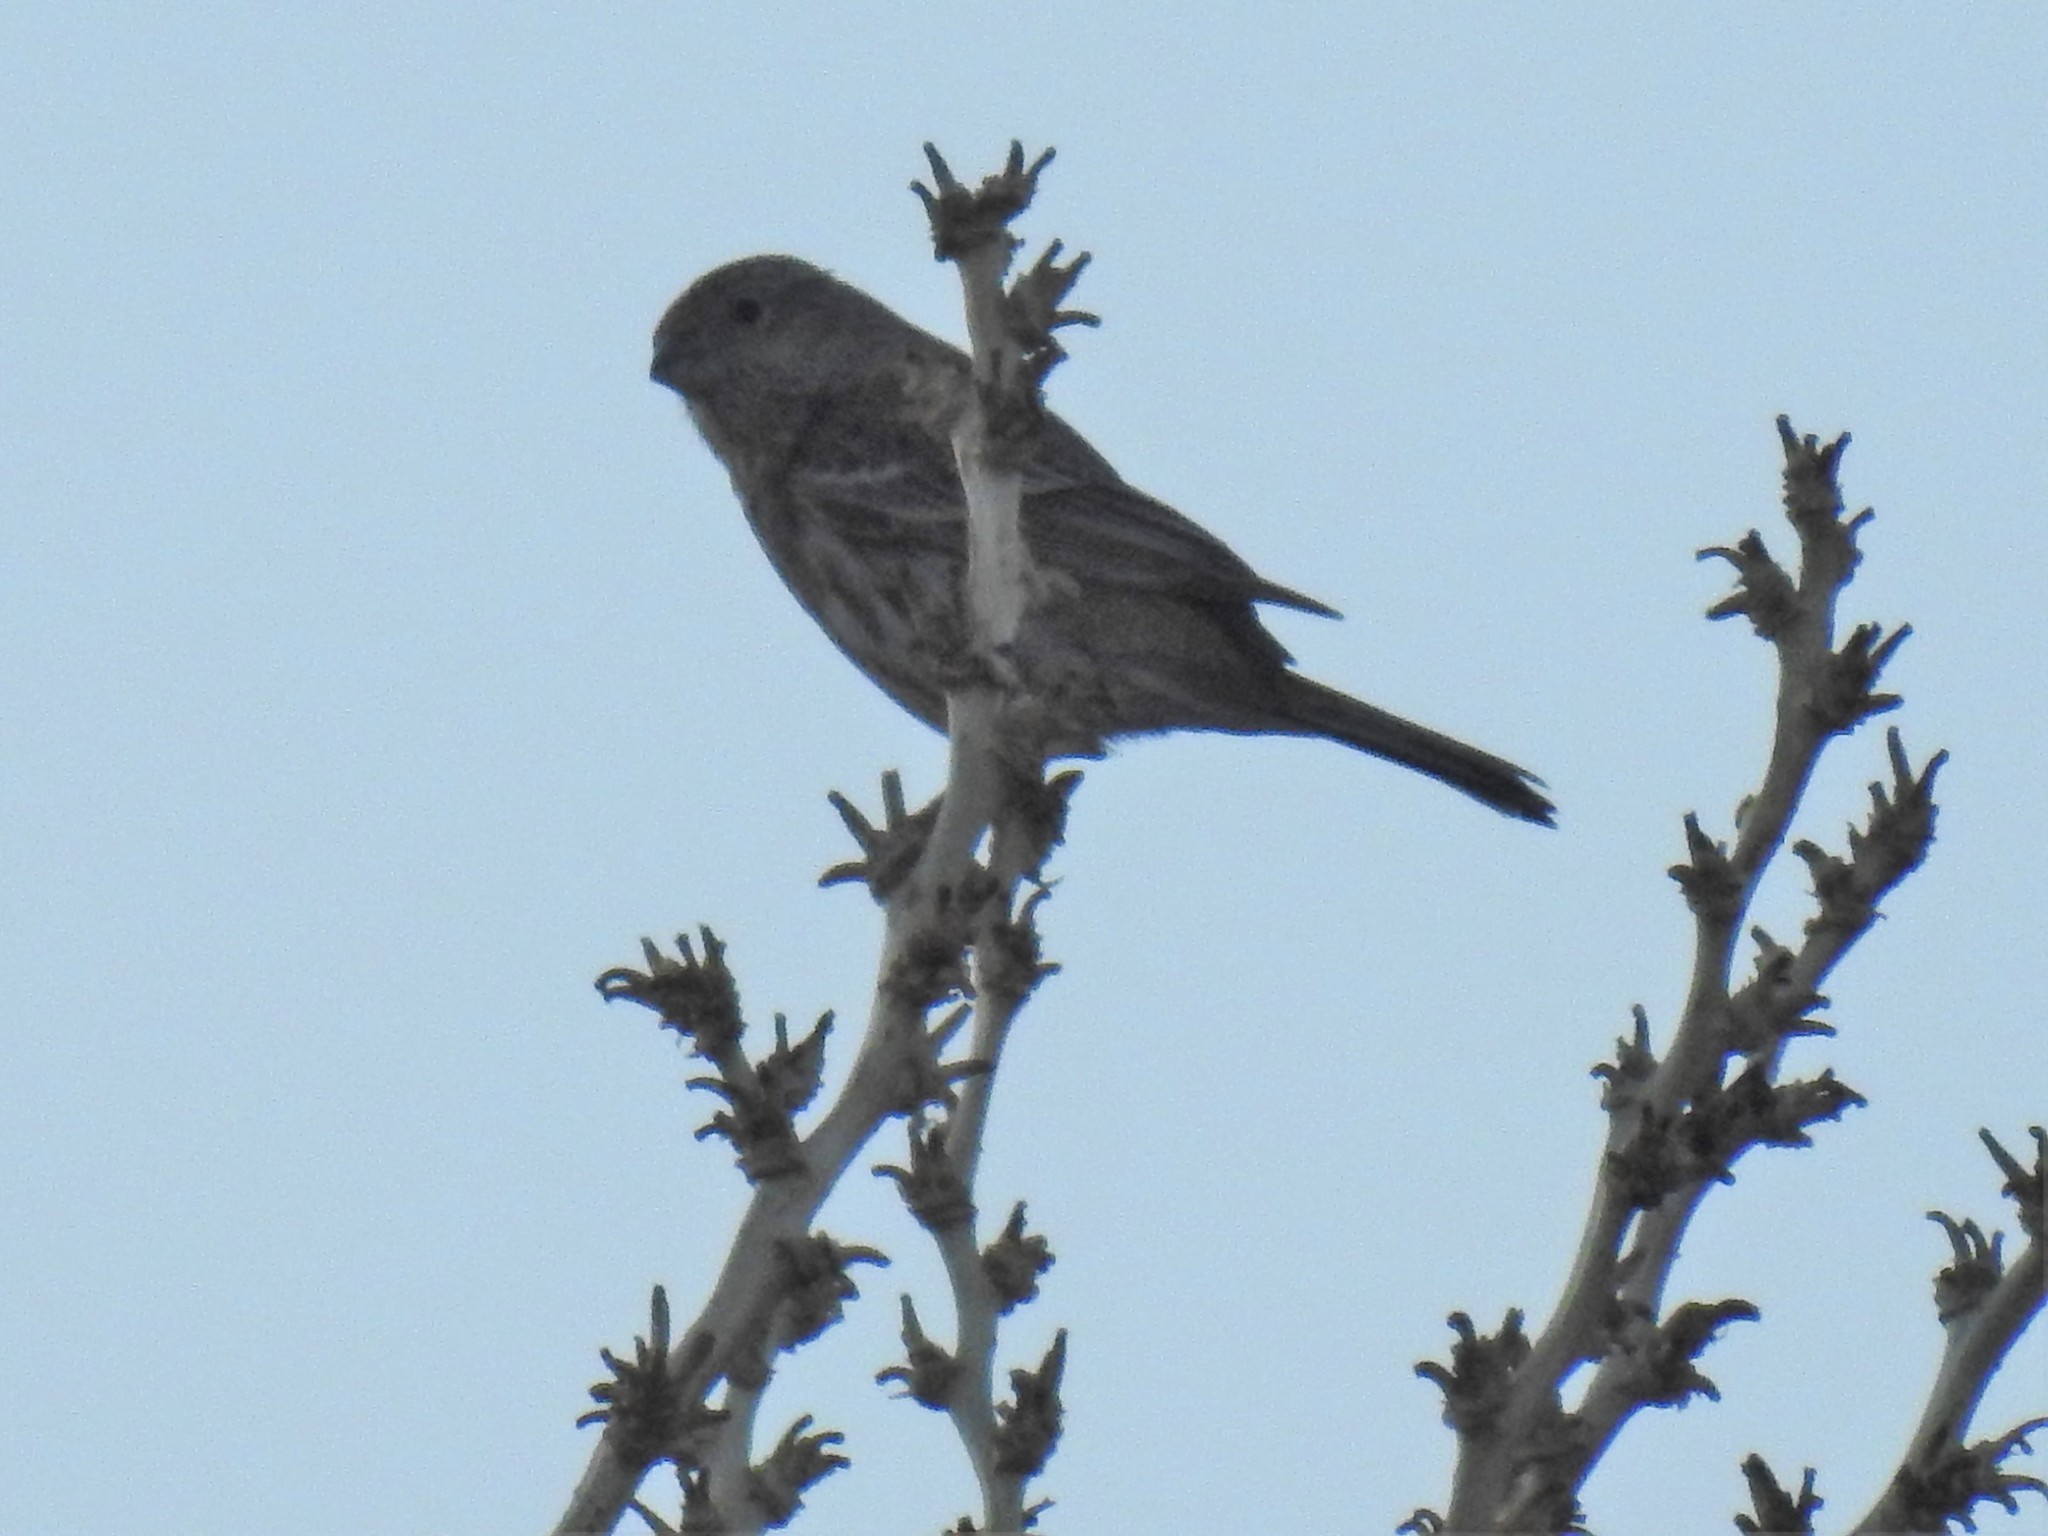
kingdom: Animalia
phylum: Chordata
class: Aves
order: Passeriformes
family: Fringillidae
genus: Haemorhous
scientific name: Haemorhous mexicanus
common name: House finch
